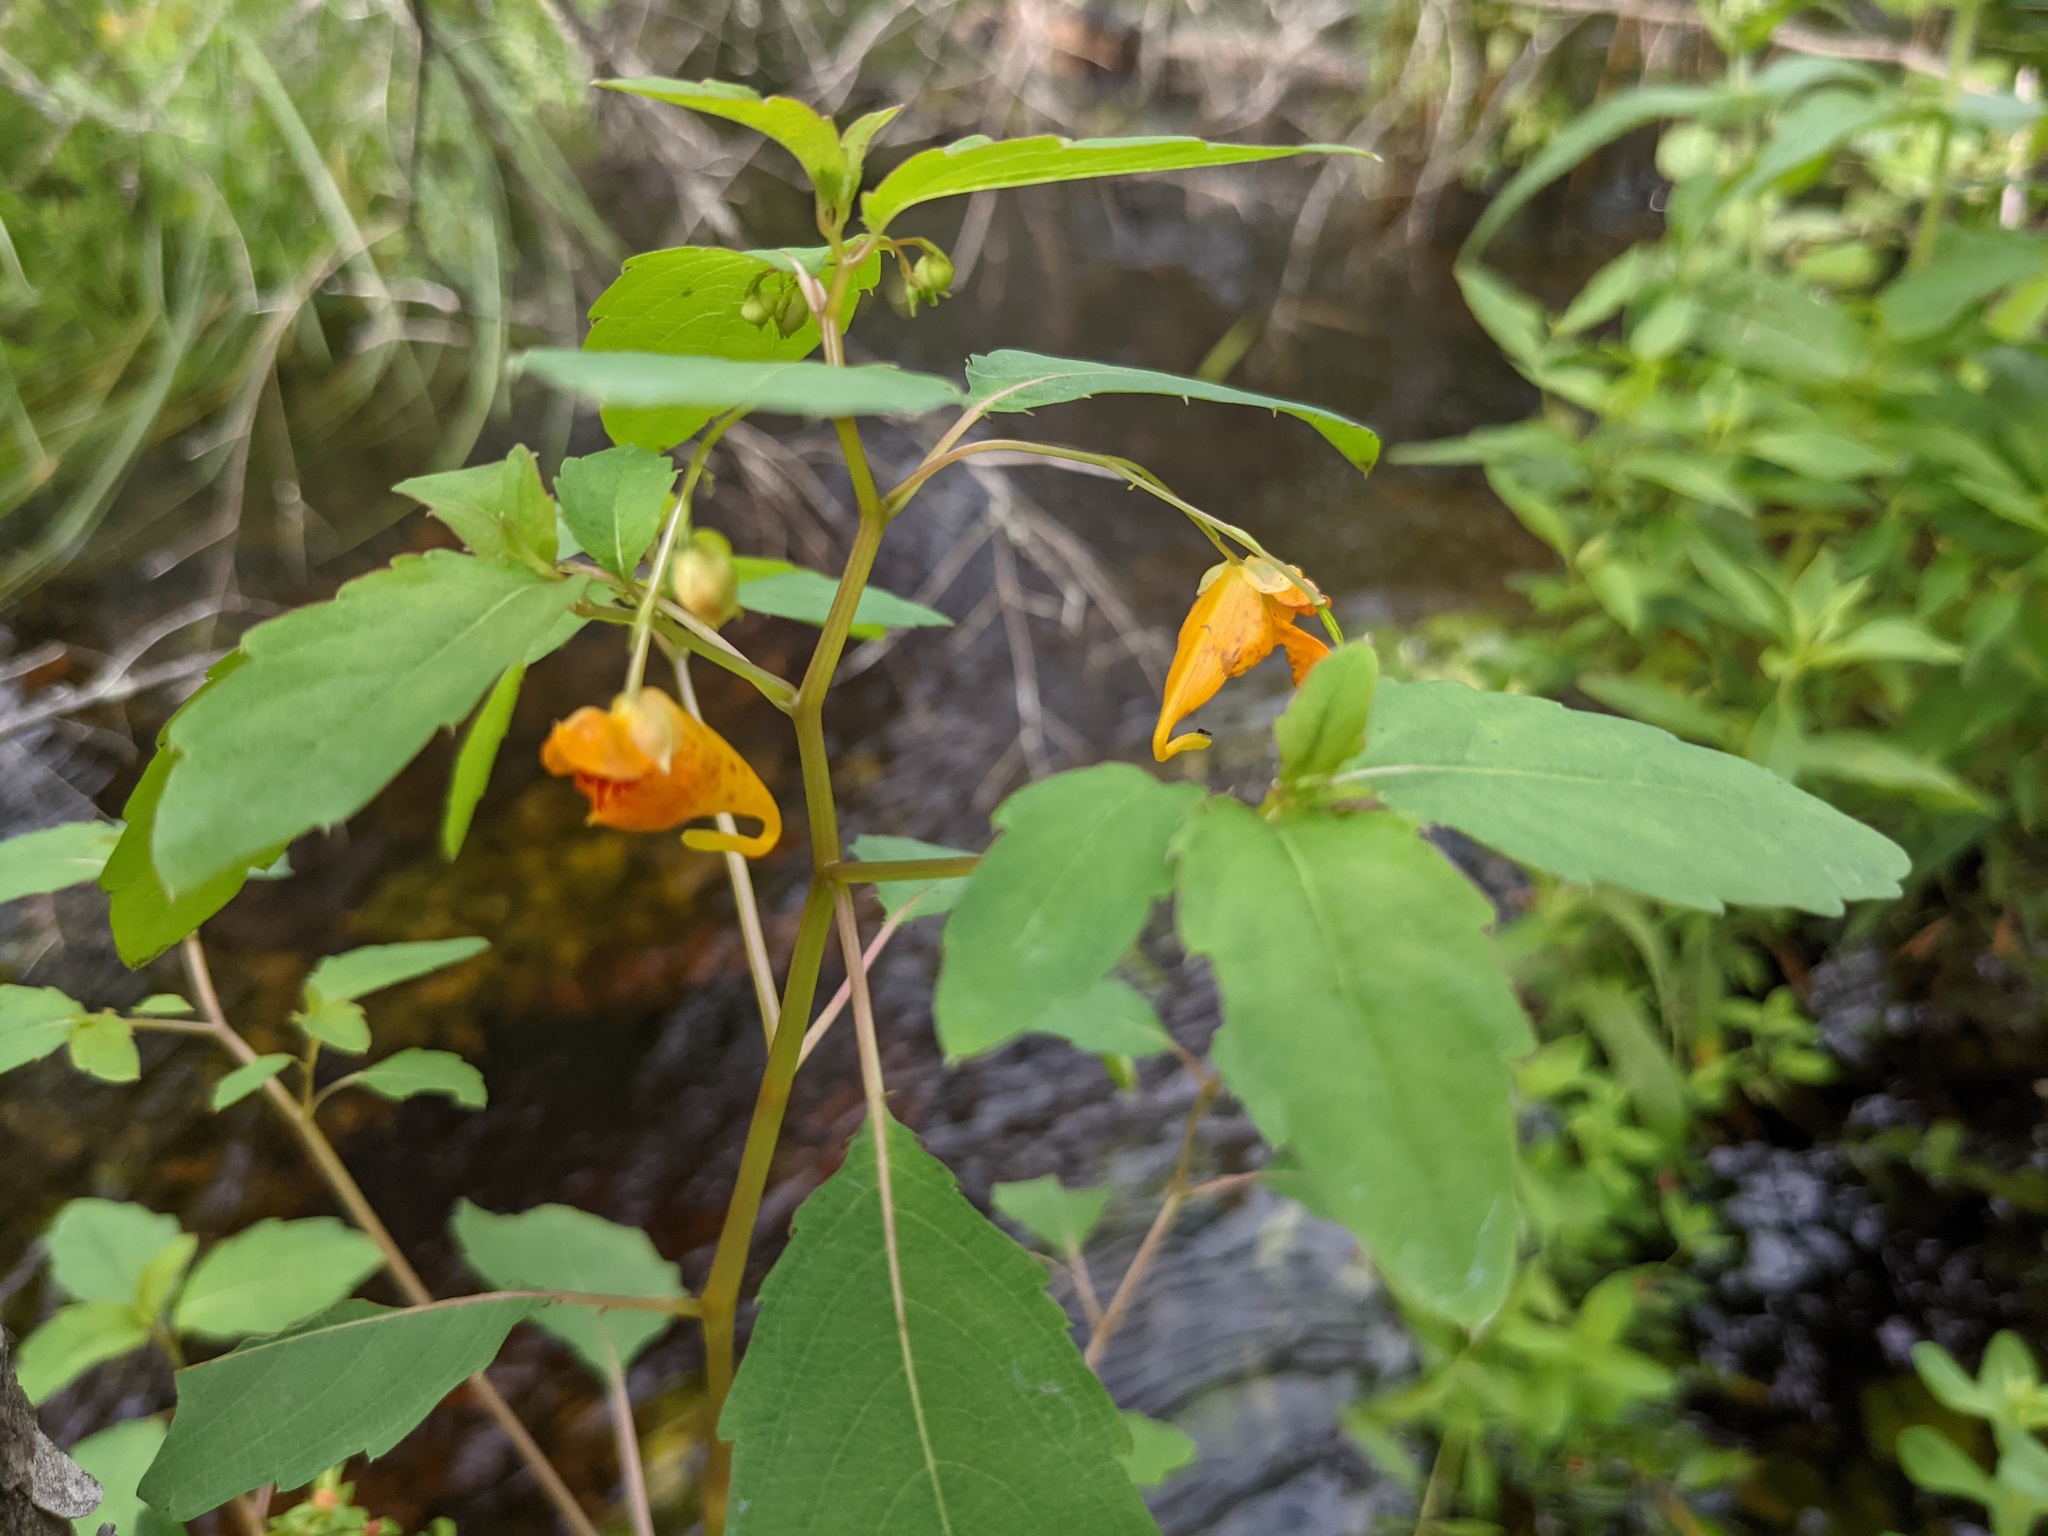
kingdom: Plantae
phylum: Tracheophyta
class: Magnoliopsida
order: Ericales
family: Balsaminaceae
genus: Impatiens
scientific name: Impatiens capensis
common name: Orange balsam
